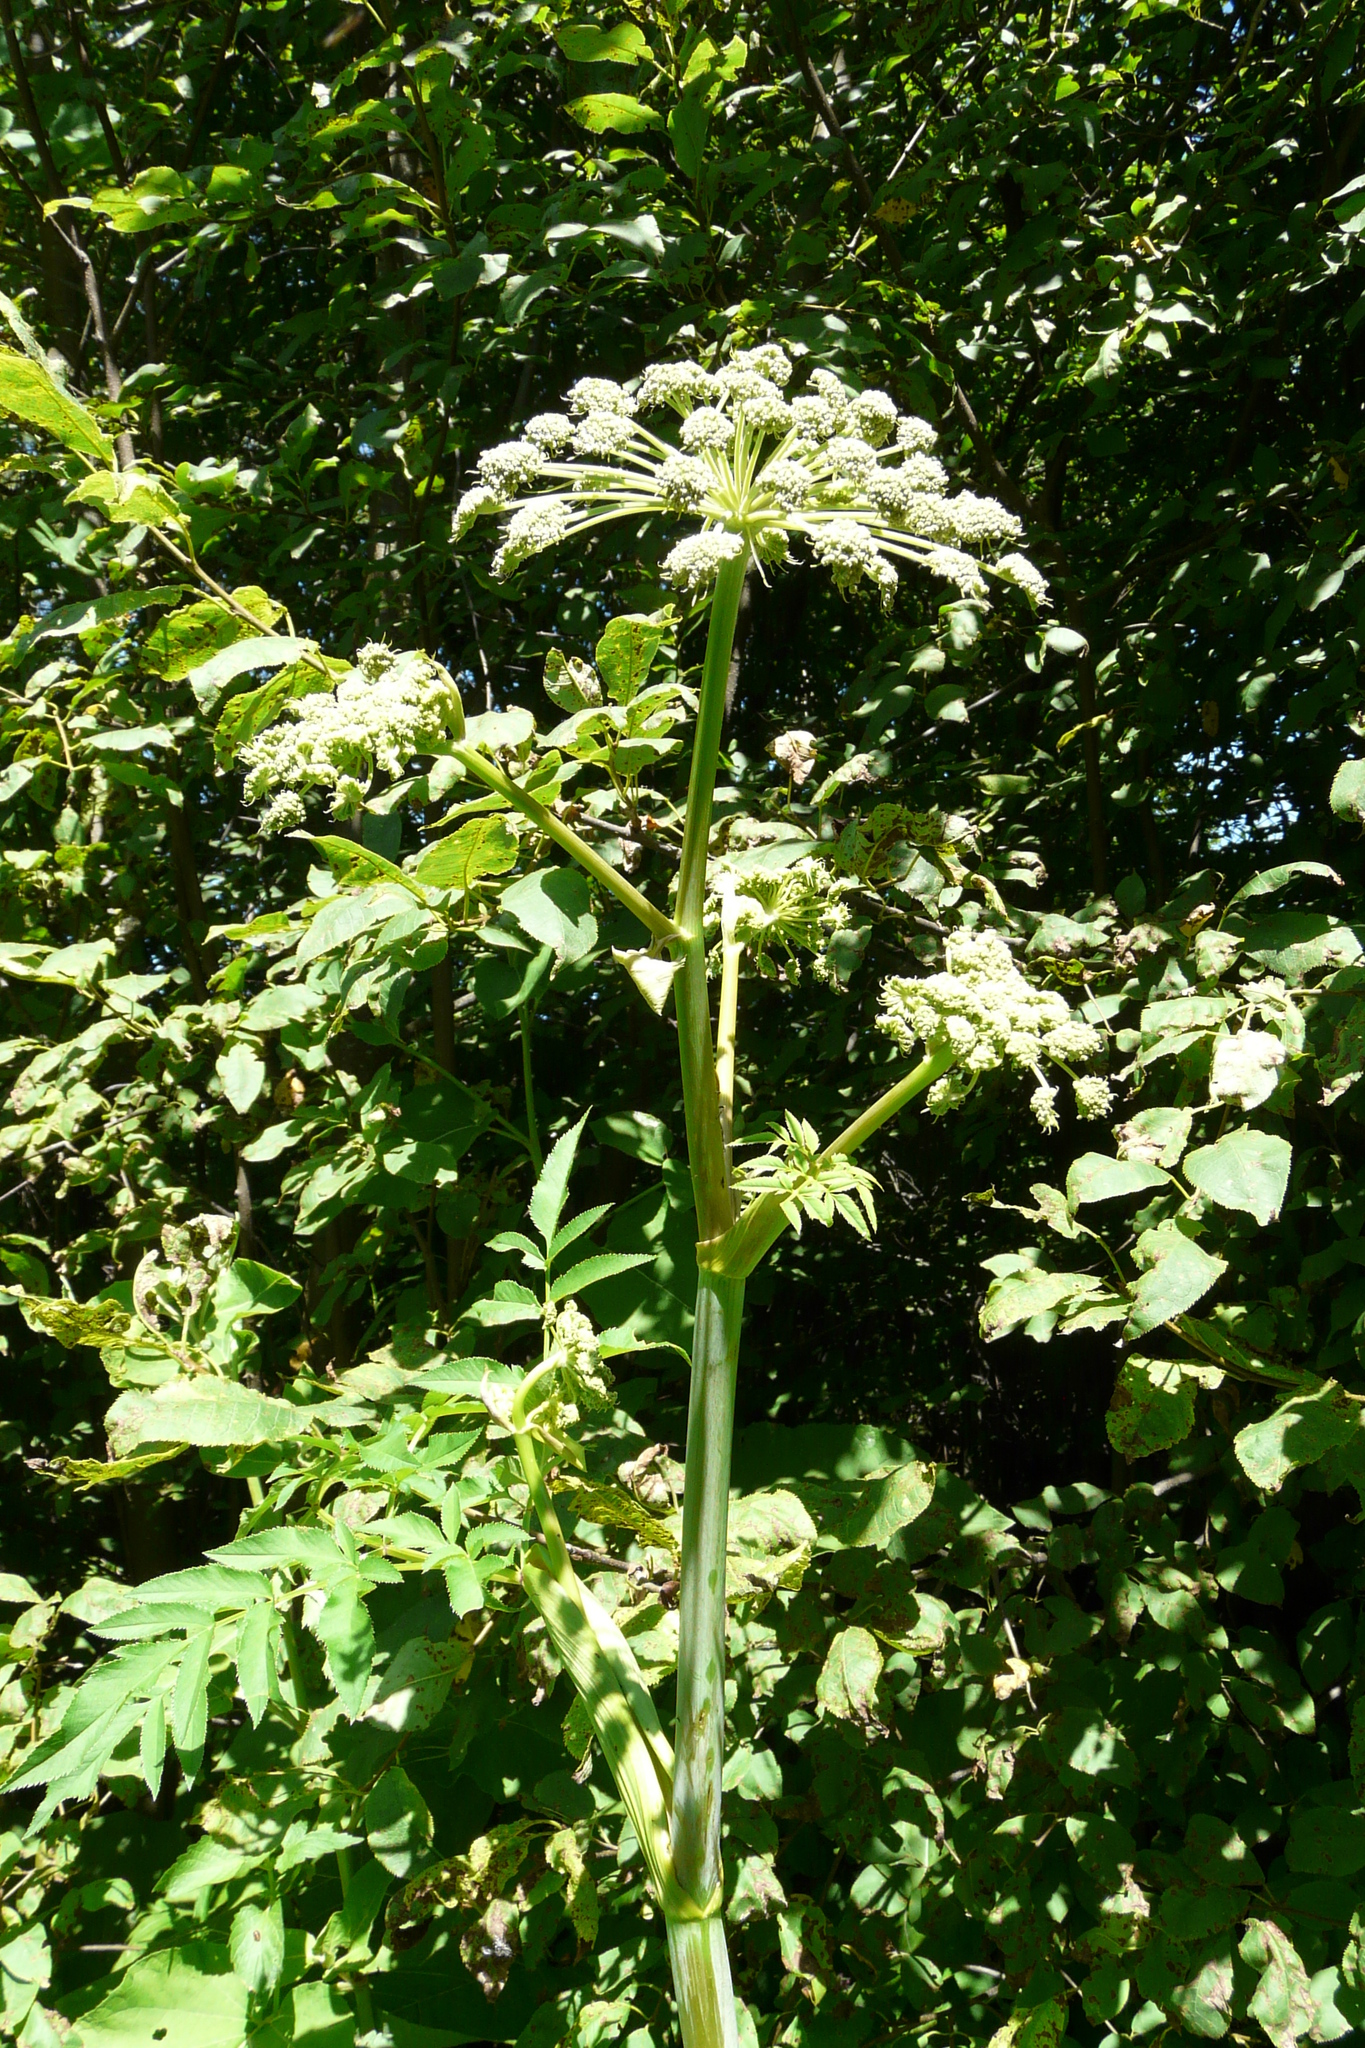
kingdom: Plantae
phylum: Tracheophyta
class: Magnoliopsida
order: Apiales
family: Apiaceae
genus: Angelica
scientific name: Angelica sylvestris
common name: Wild angelica
